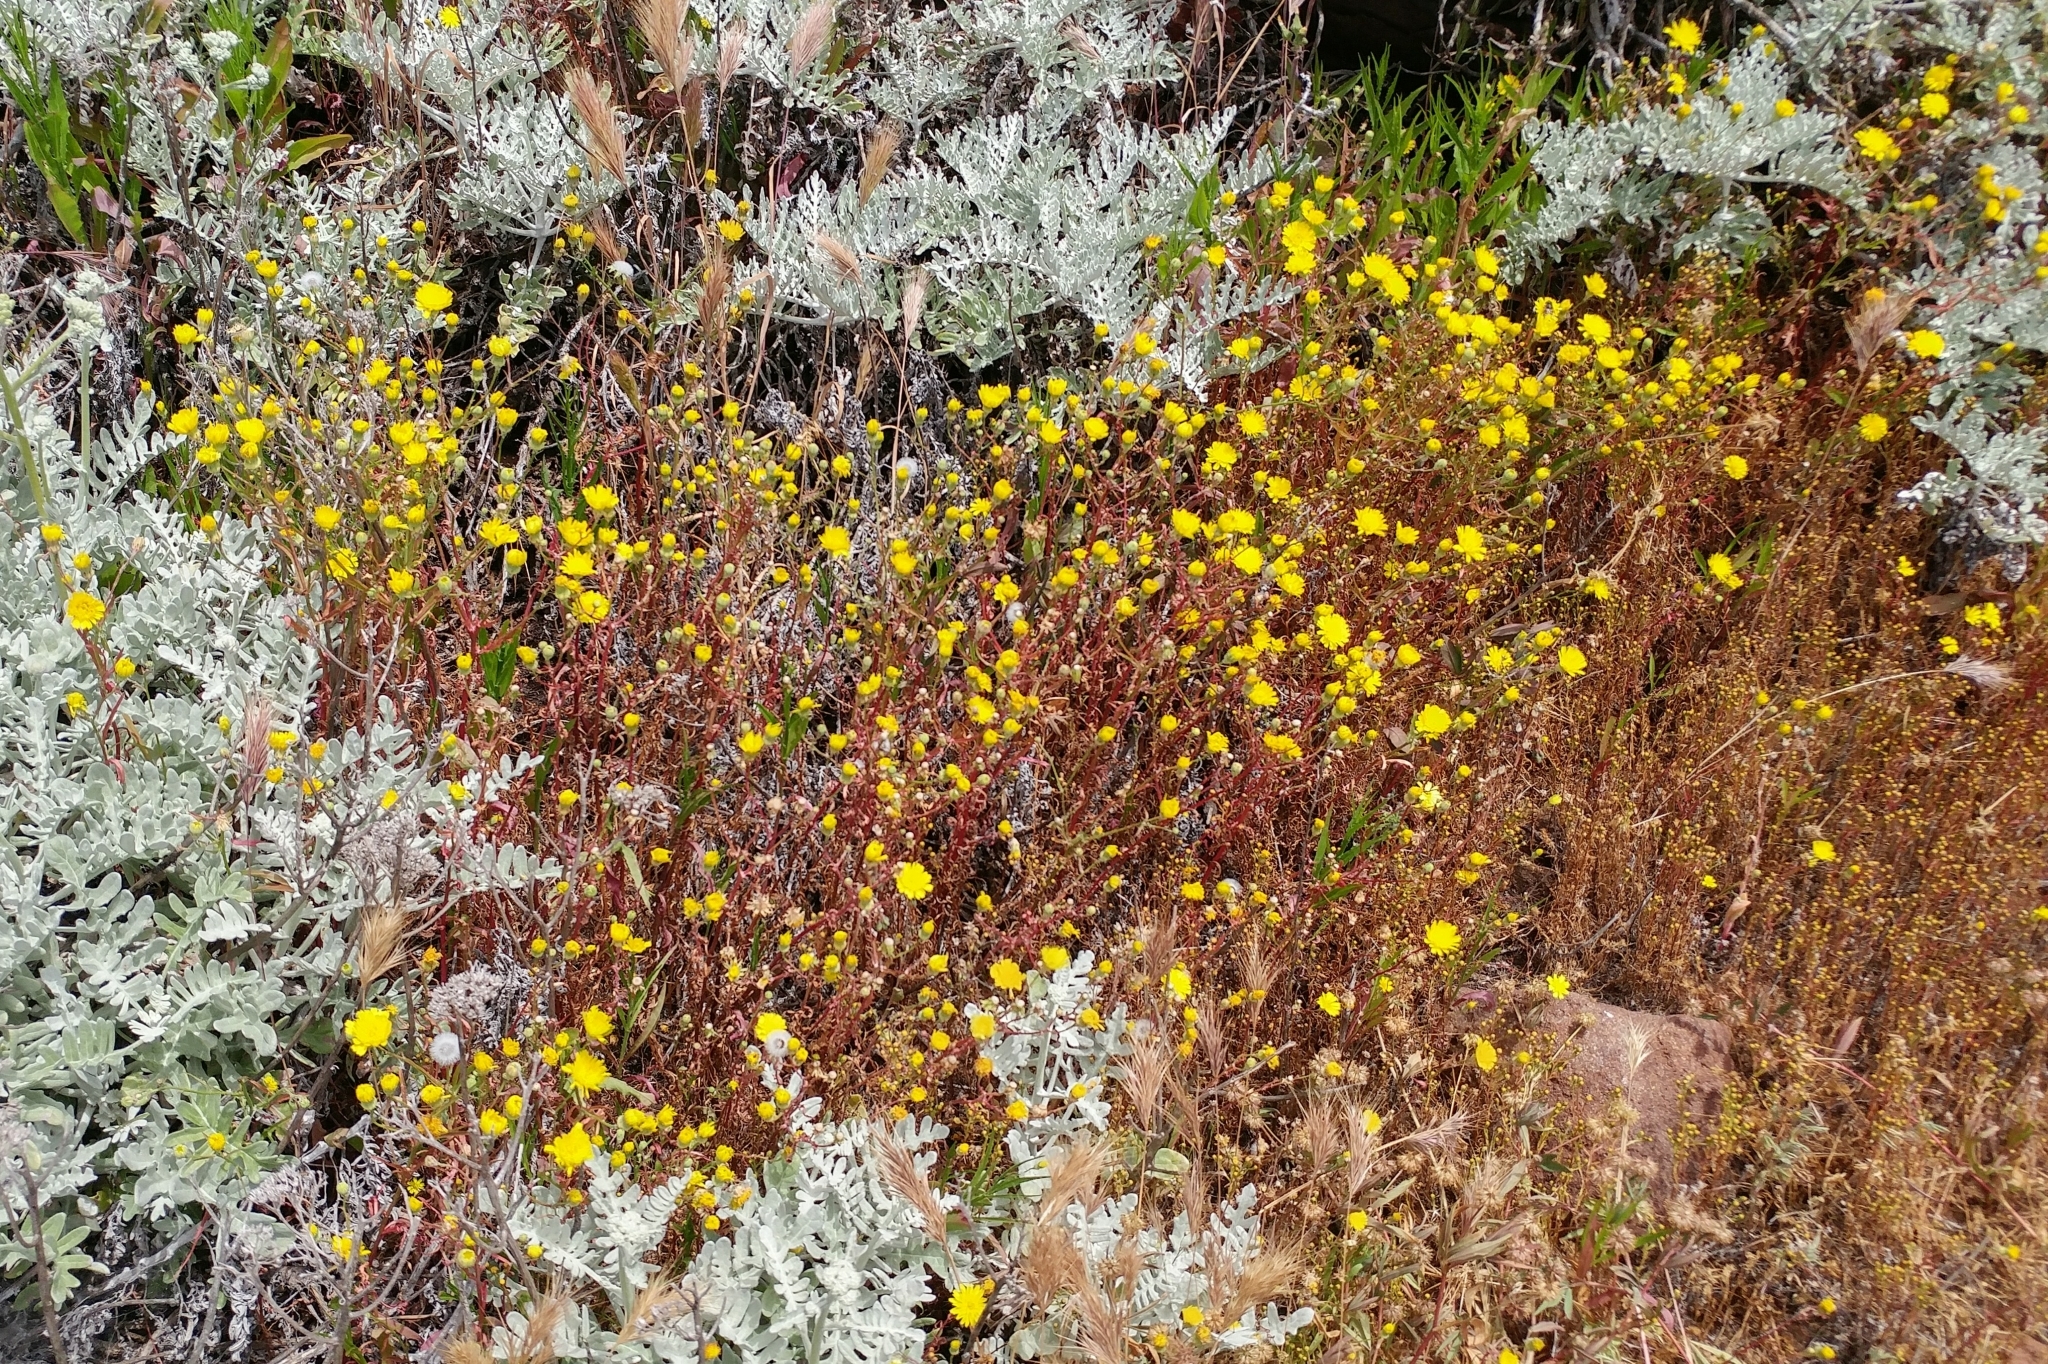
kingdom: Plantae
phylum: Tracheophyta
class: Magnoliopsida
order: Asterales
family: Asteraceae
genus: Malacothrix
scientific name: Malacothrix foliosa
